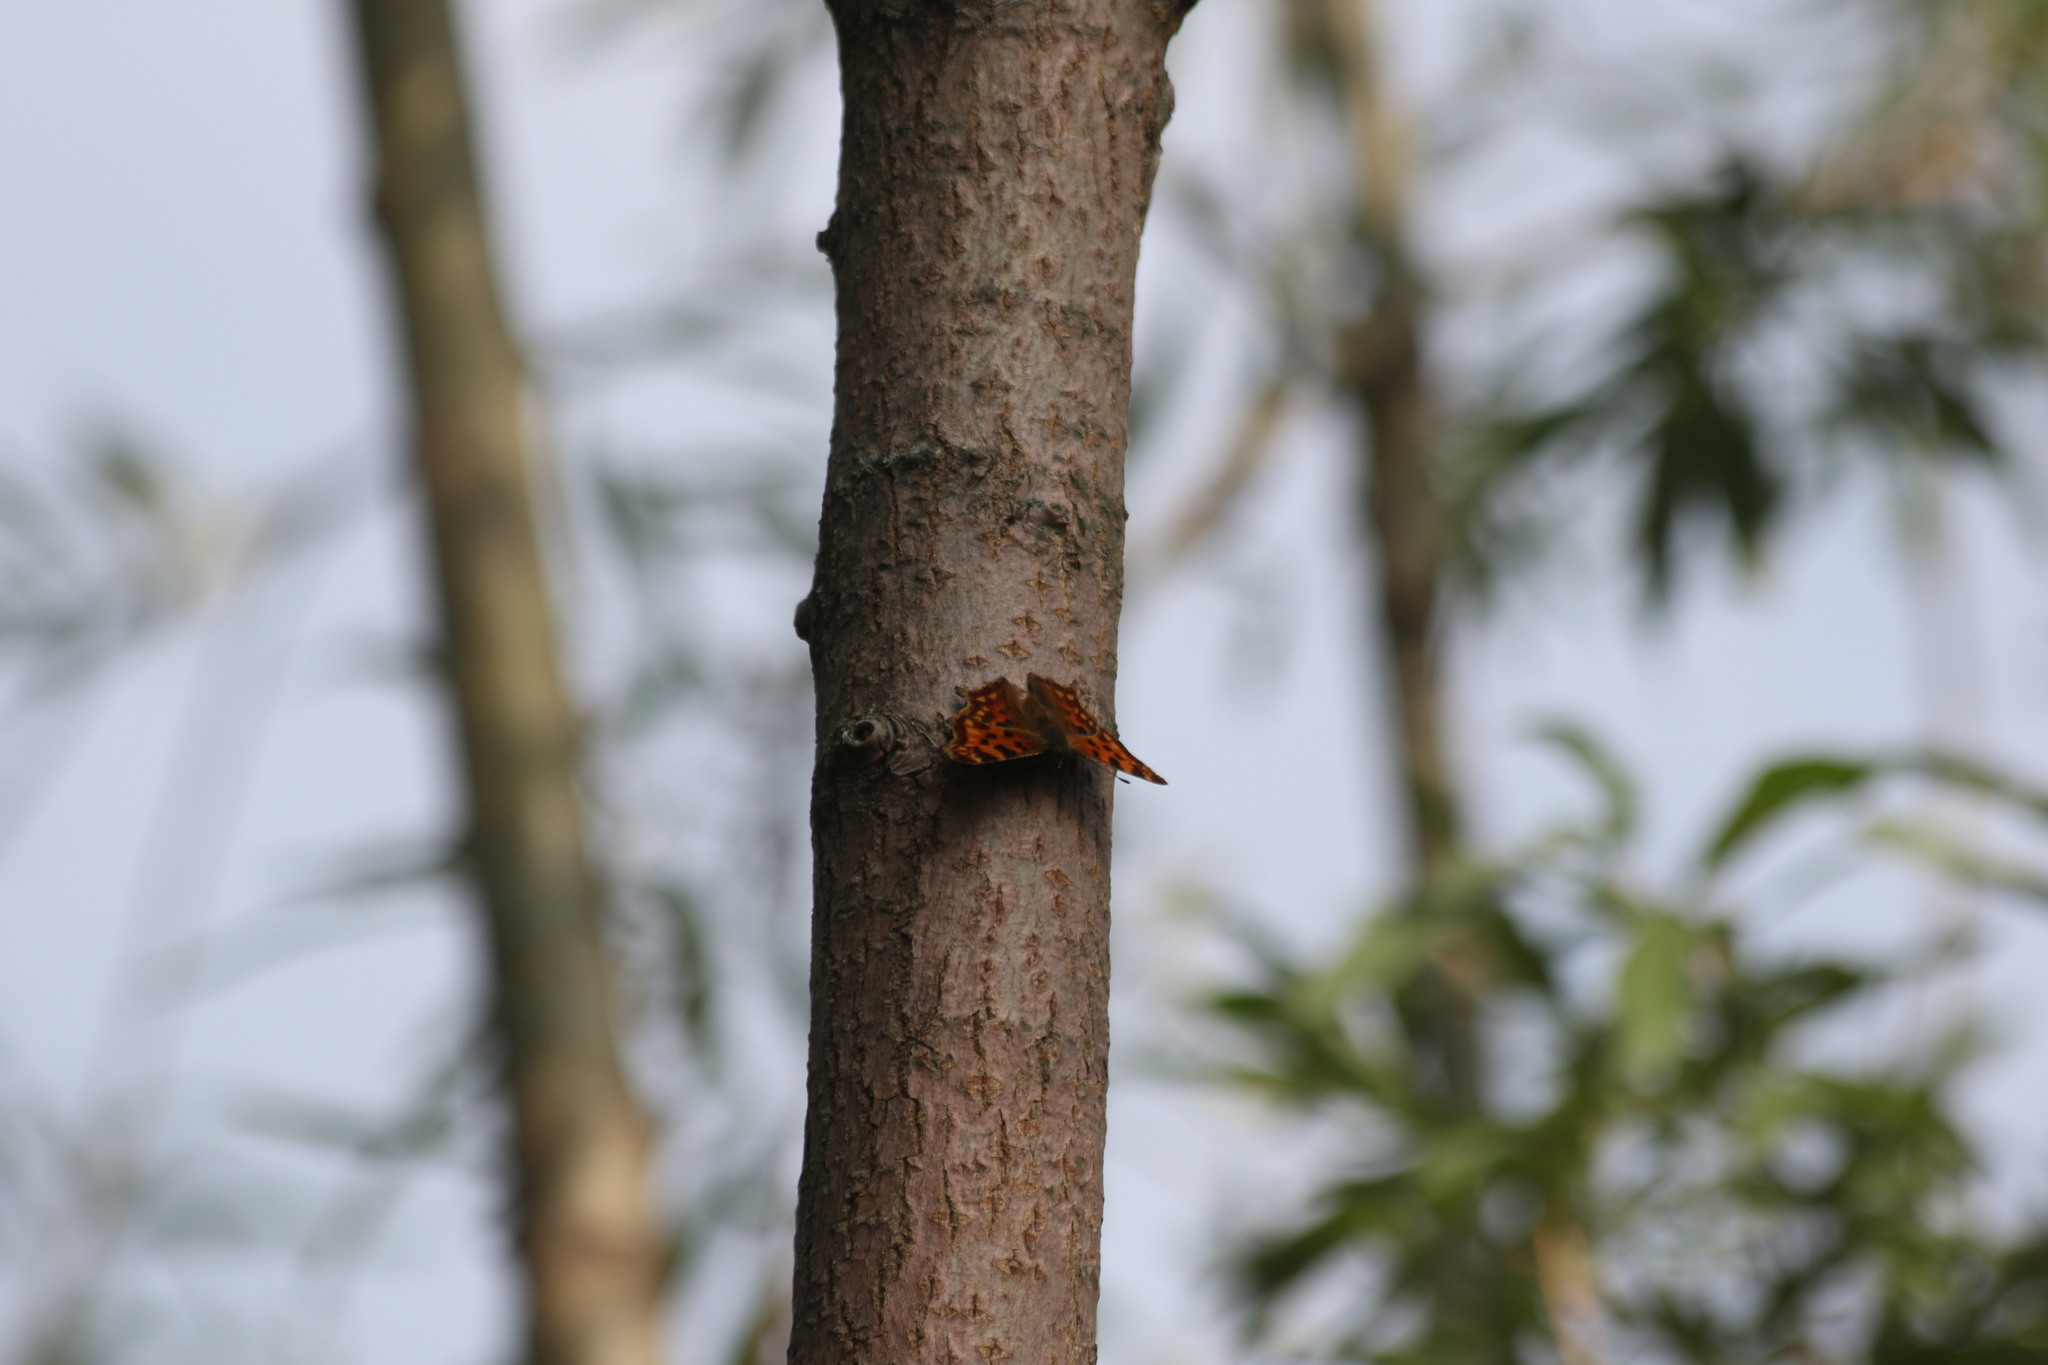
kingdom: Animalia
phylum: Arthropoda
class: Insecta
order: Lepidoptera
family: Nymphalidae
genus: Polygonia
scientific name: Polygonia c-album
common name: Comma
